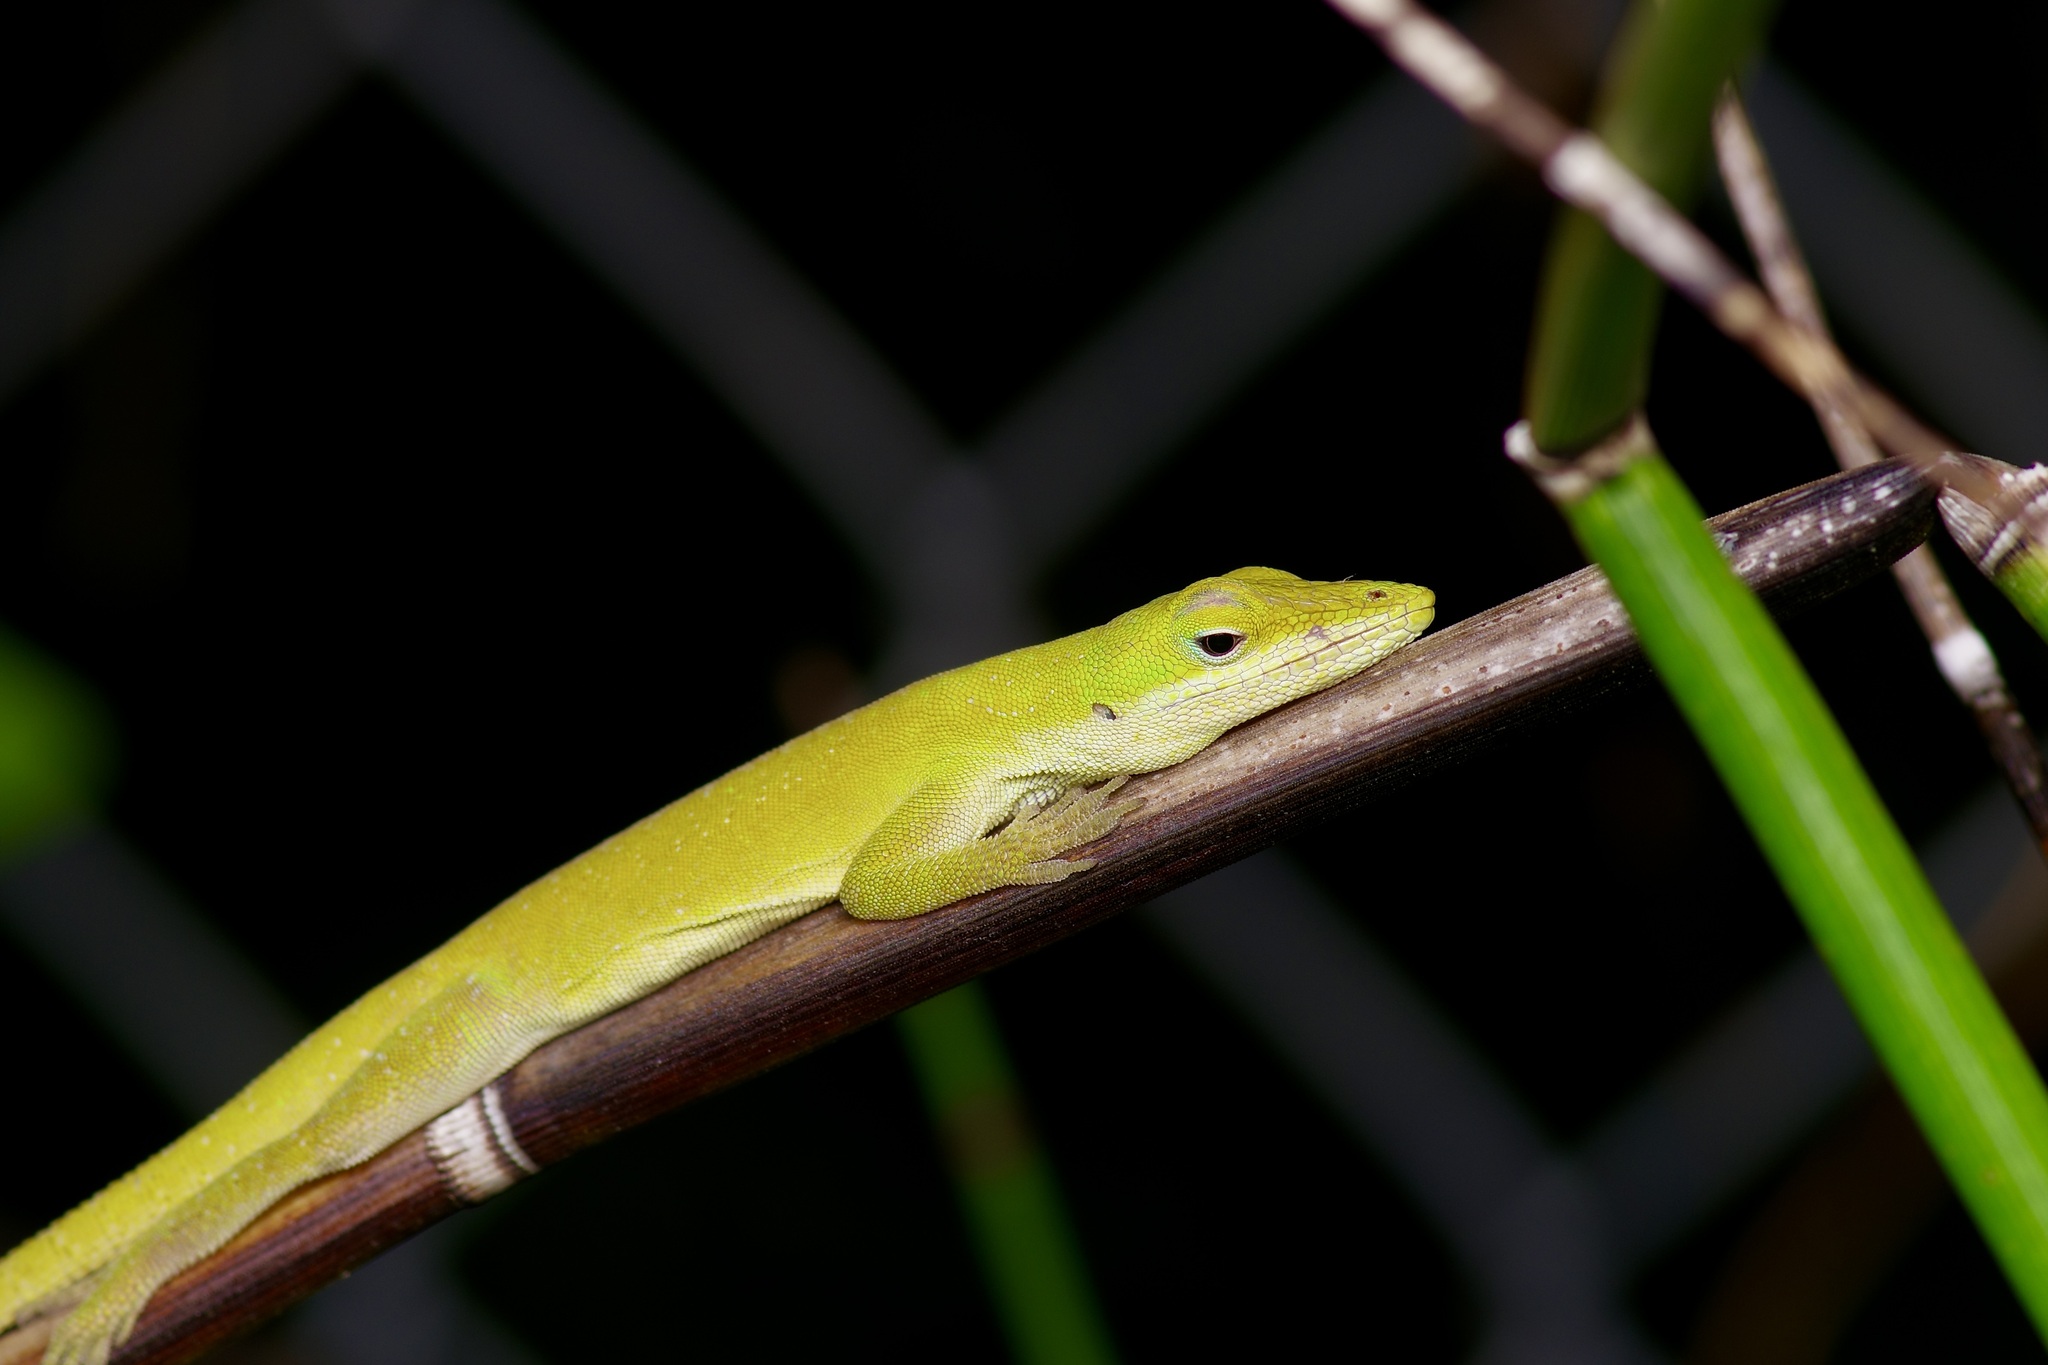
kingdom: Animalia
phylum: Chordata
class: Squamata
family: Dactyloidae
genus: Anolis
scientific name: Anolis carolinensis
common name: Green anole
